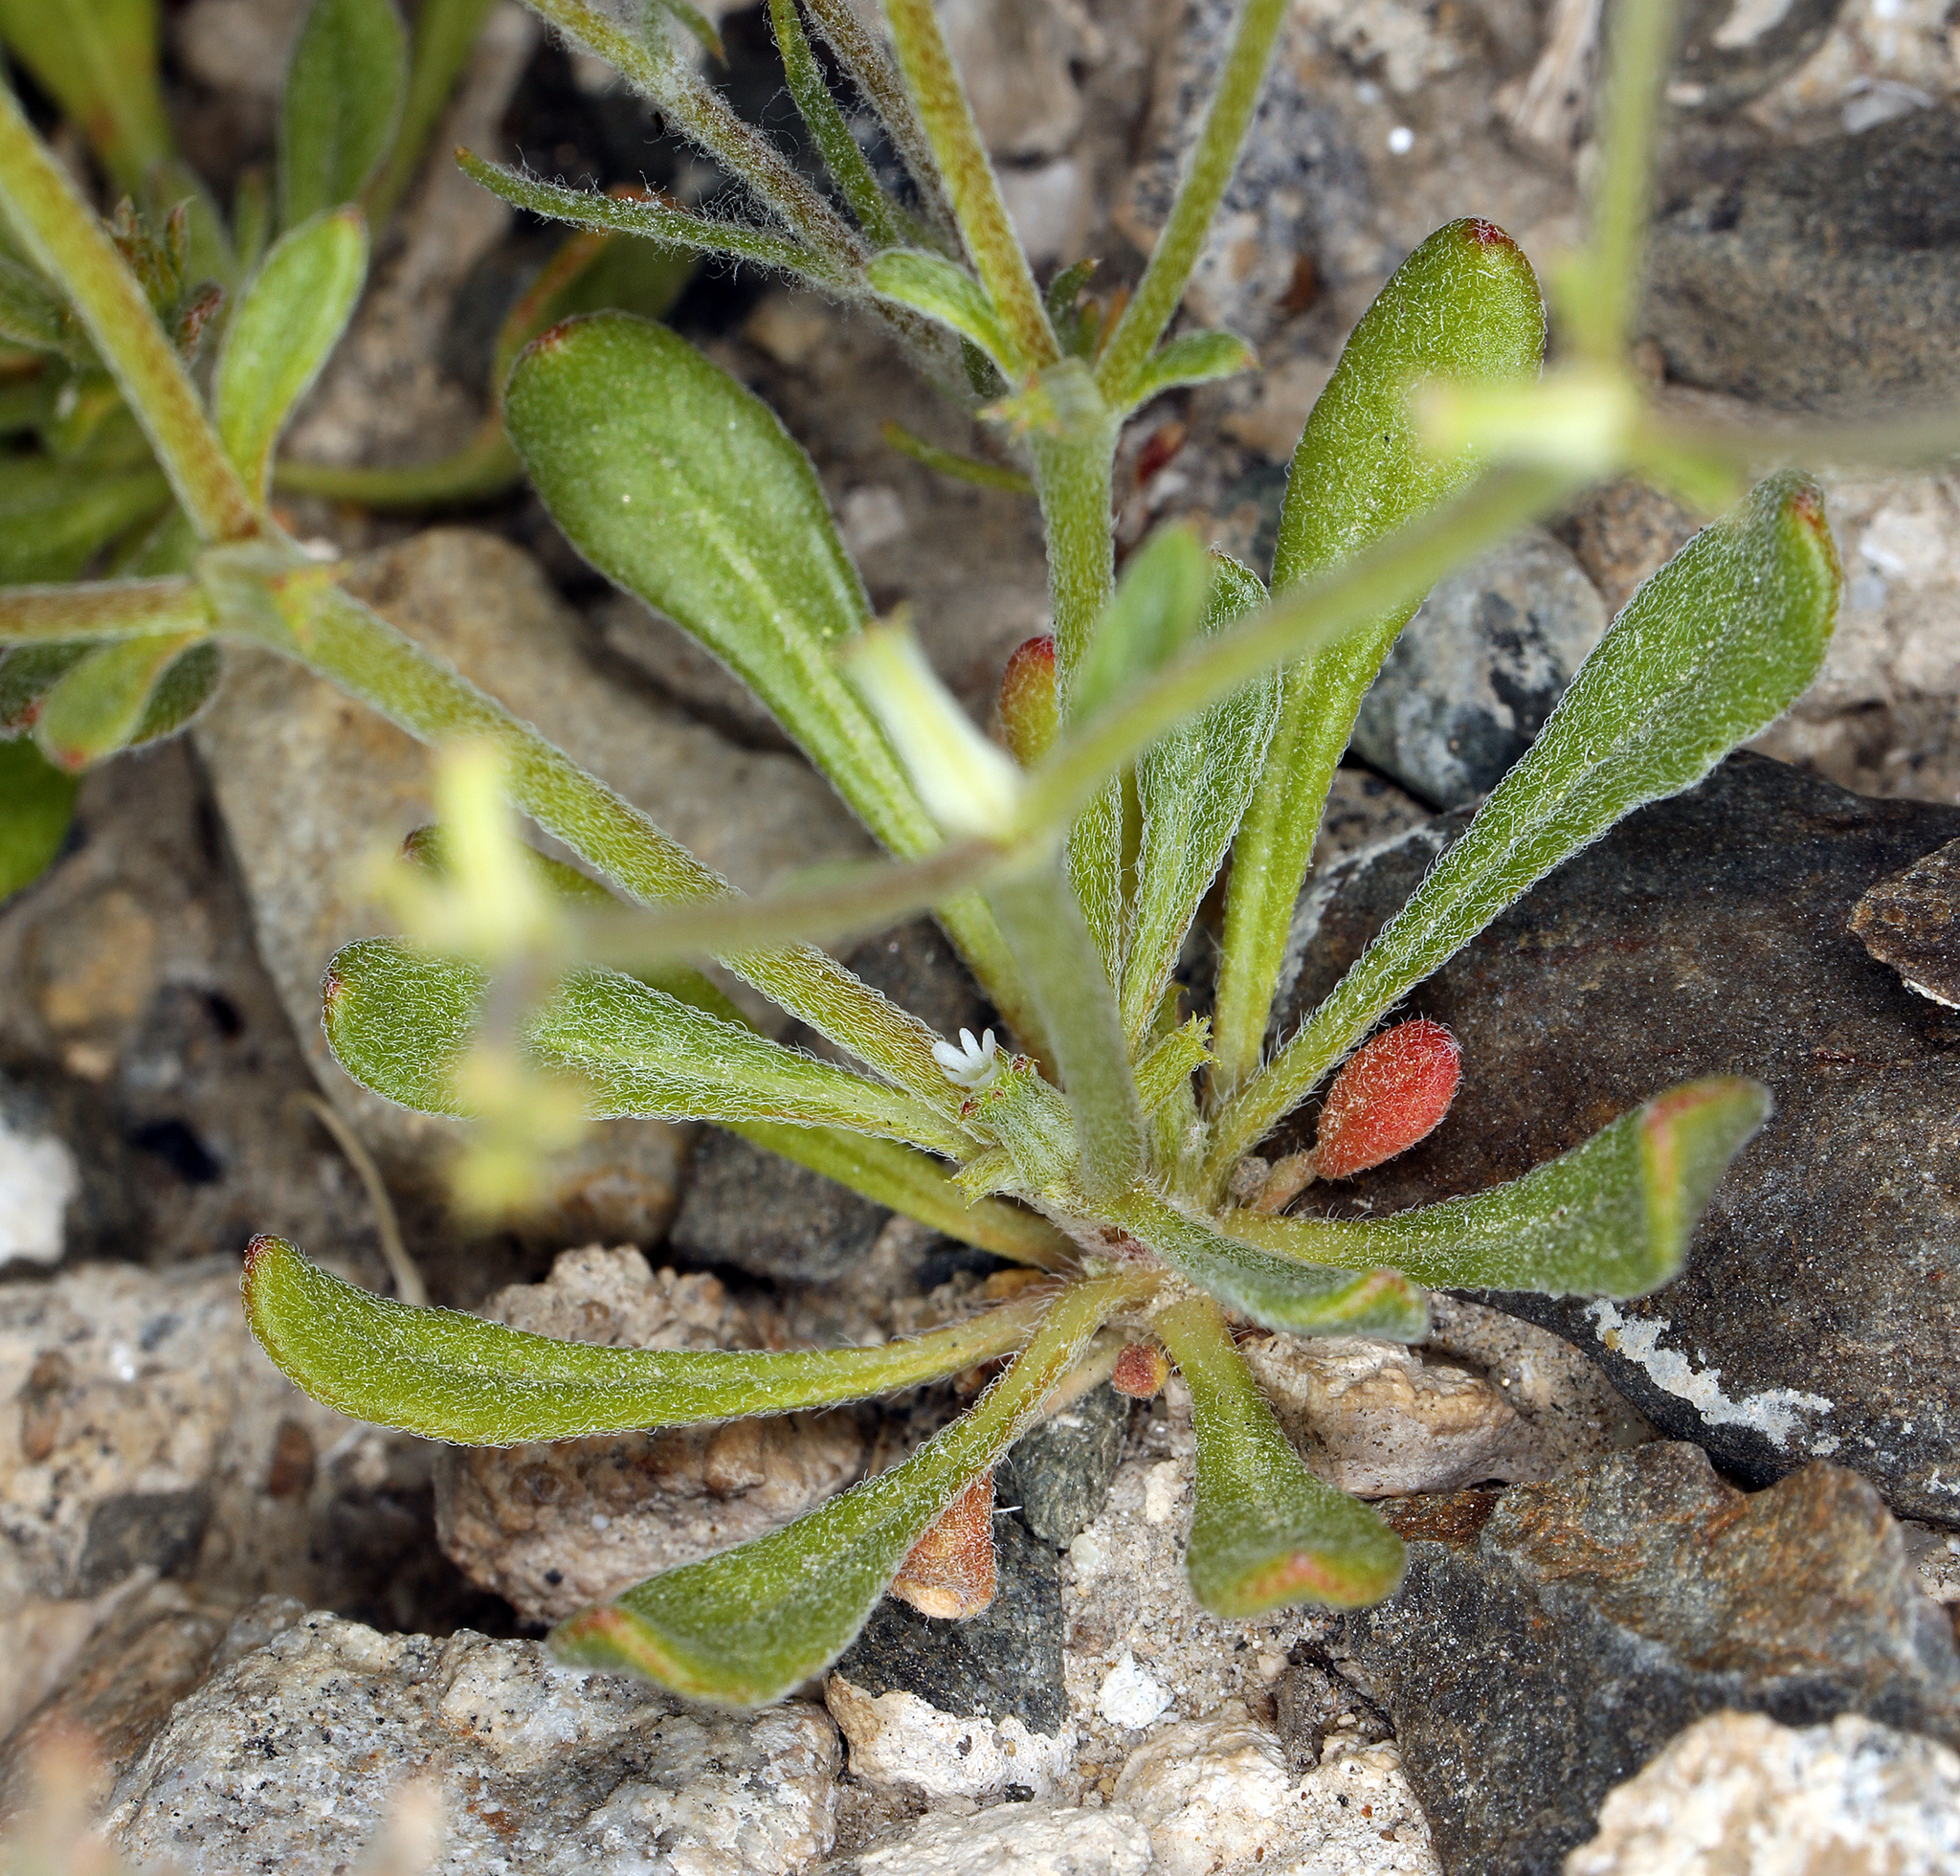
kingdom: Plantae
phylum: Tracheophyta
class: Magnoliopsida
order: Caryophyllales
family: Polygonaceae
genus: Chorizanthe
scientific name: Chorizanthe brevicornu
